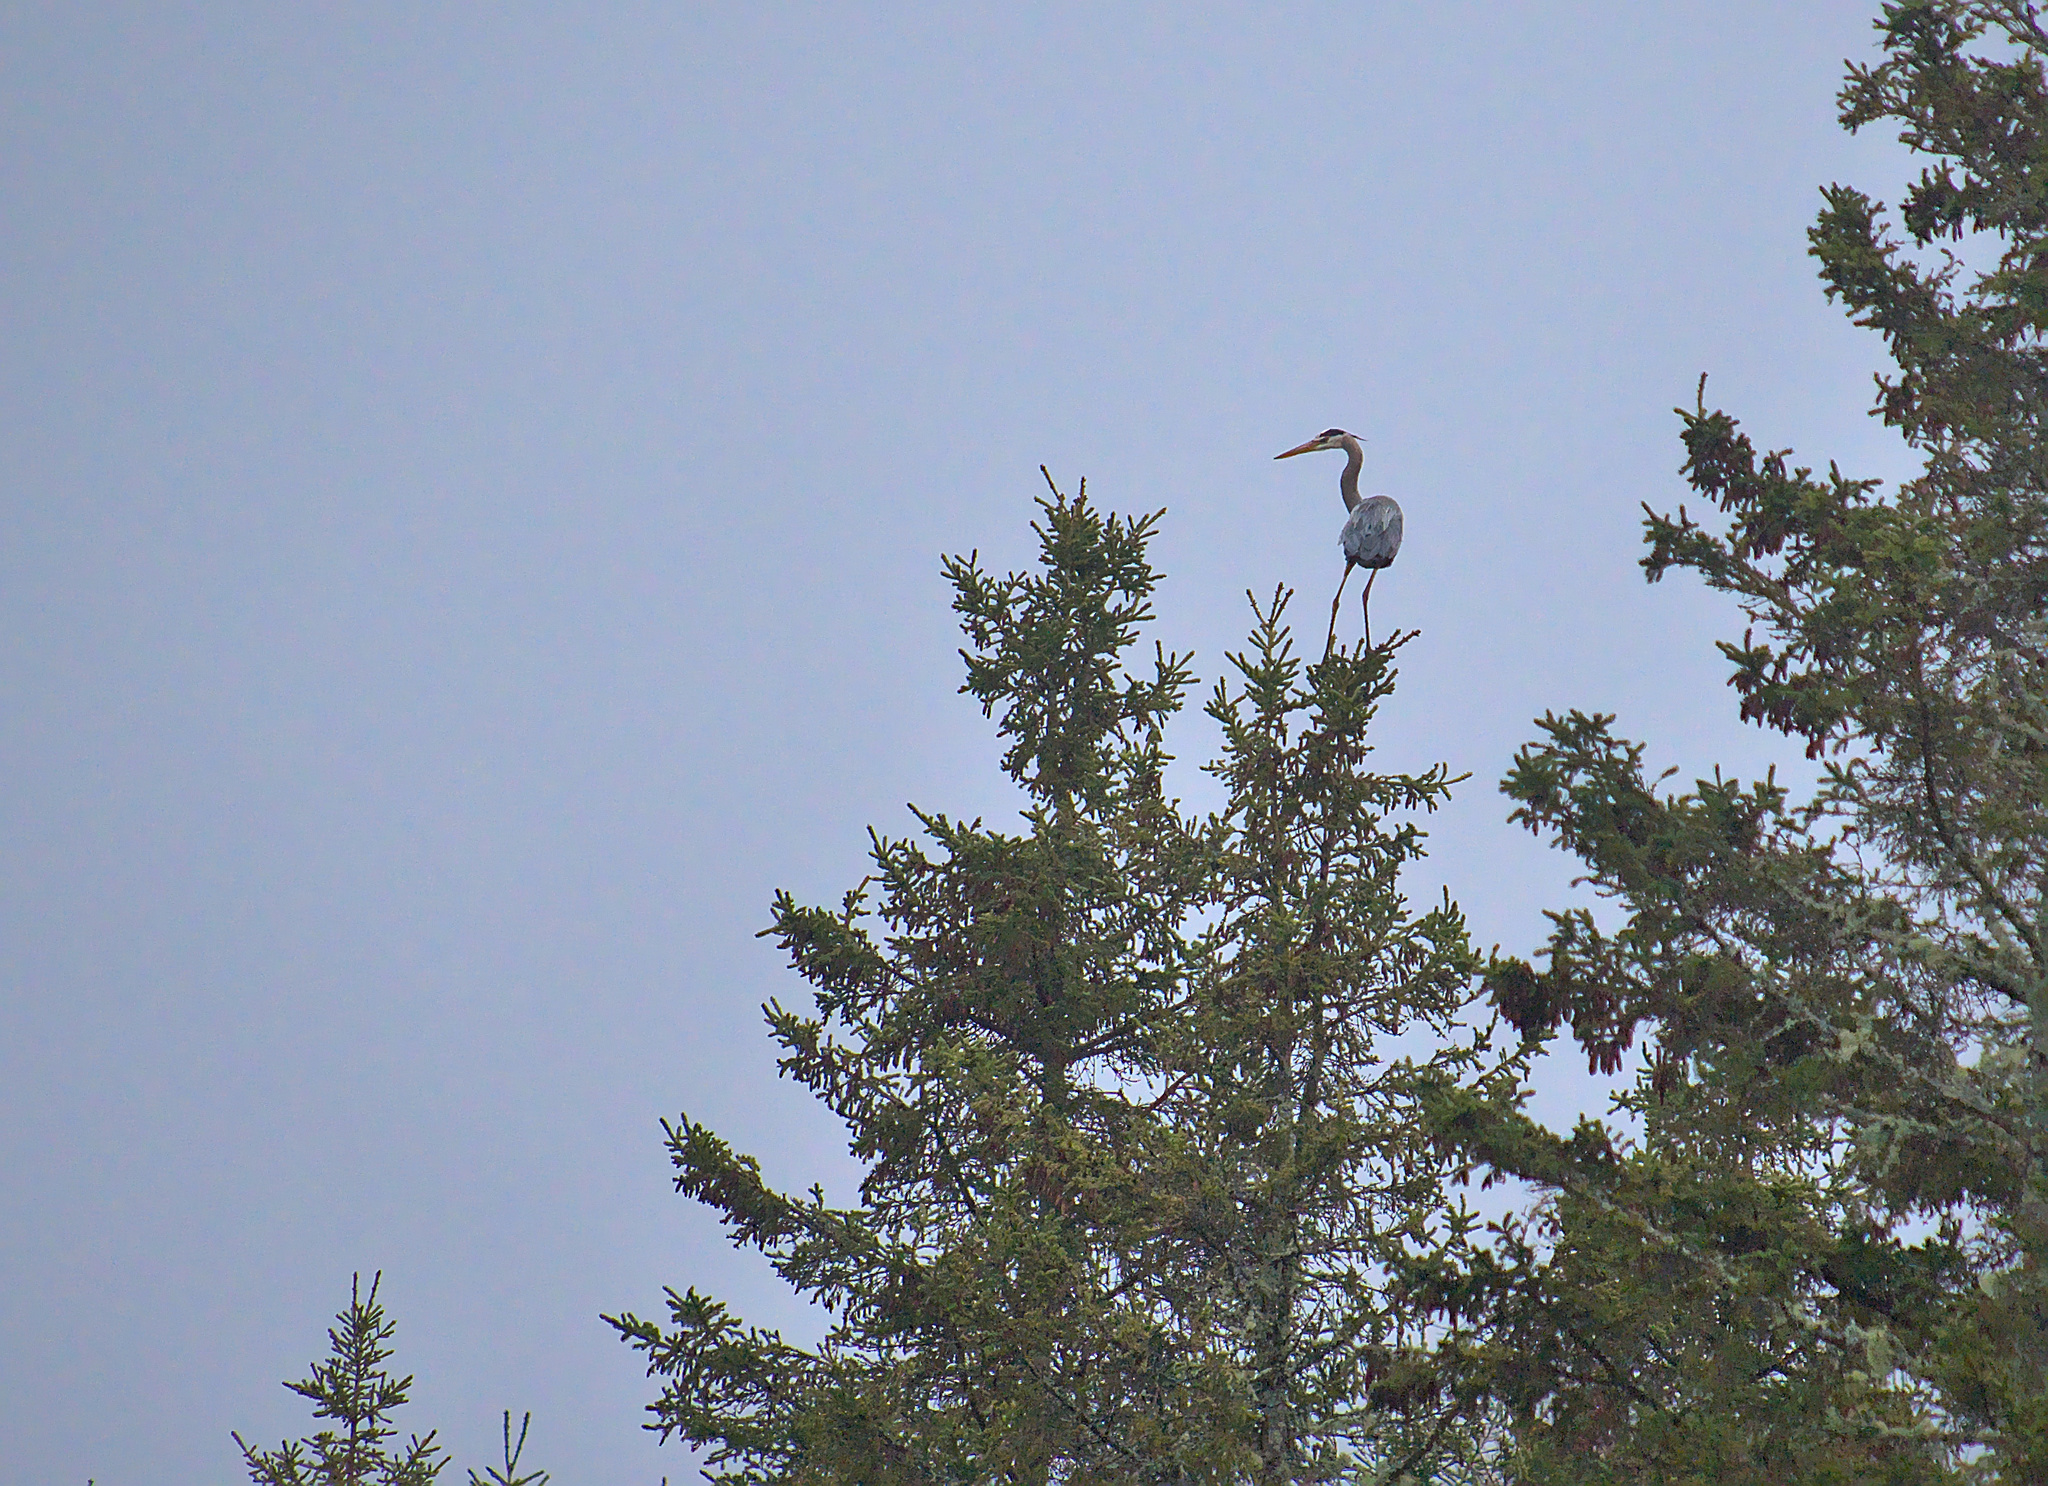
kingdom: Animalia
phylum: Chordata
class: Aves
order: Pelecaniformes
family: Ardeidae
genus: Ardea
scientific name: Ardea herodias
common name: Great blue heron
